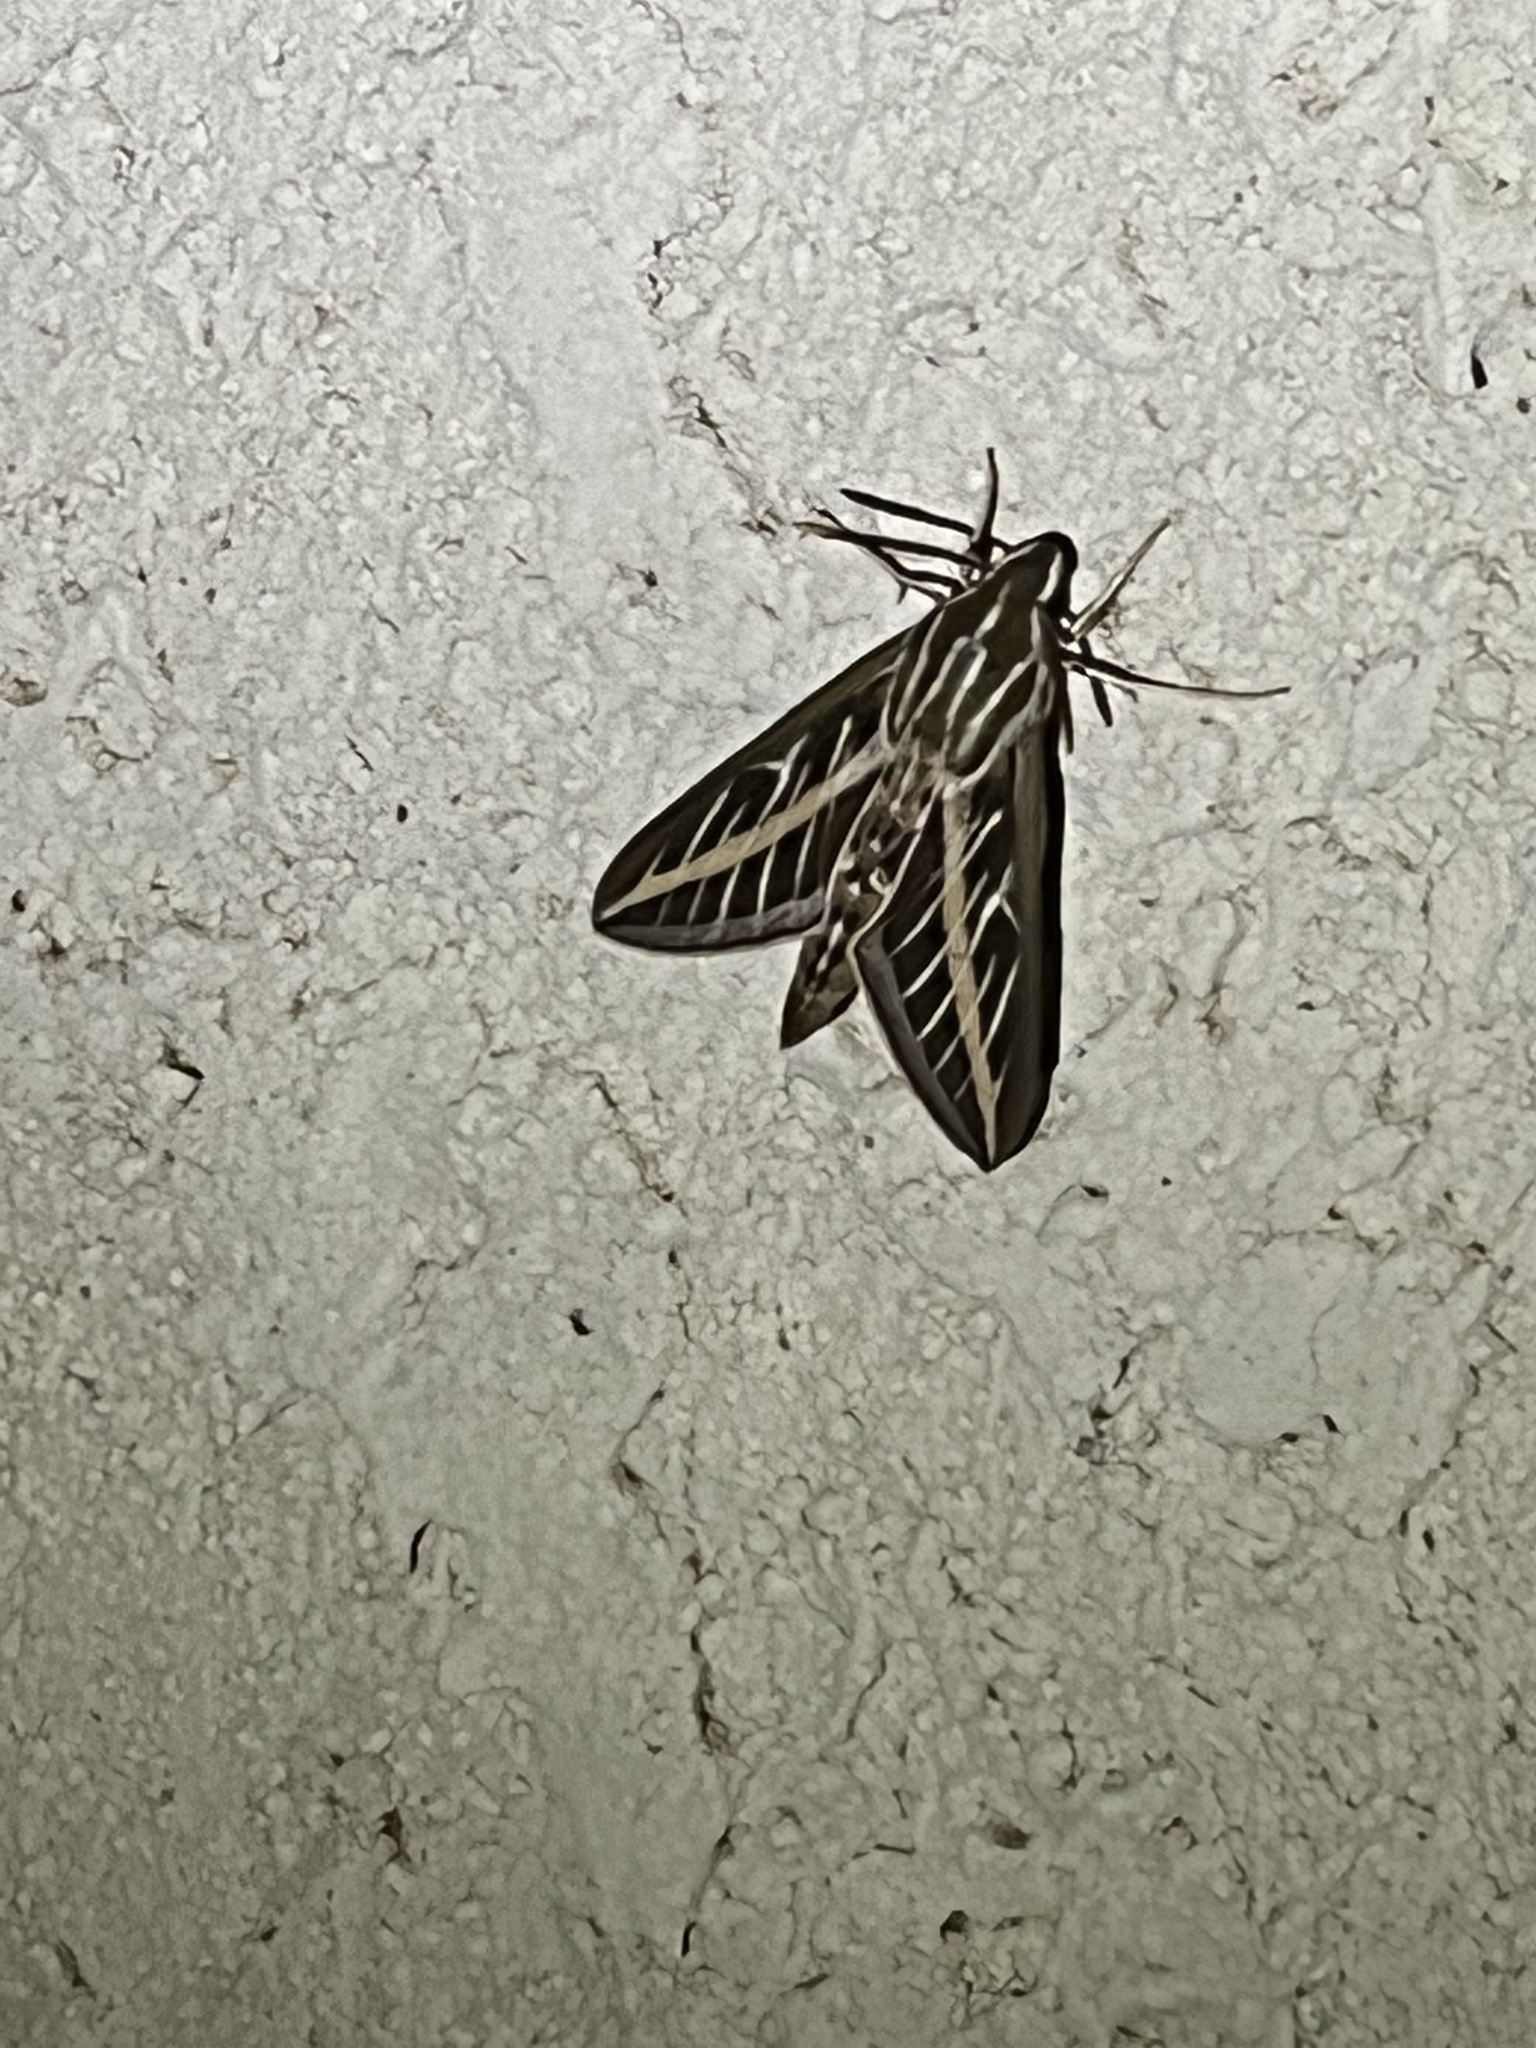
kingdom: Animalia
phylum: Arthropoda
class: Insecta
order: Lepidoptera
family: Sphingidae
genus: Hyles
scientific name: Hyles lineata
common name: White-lined sphinx
